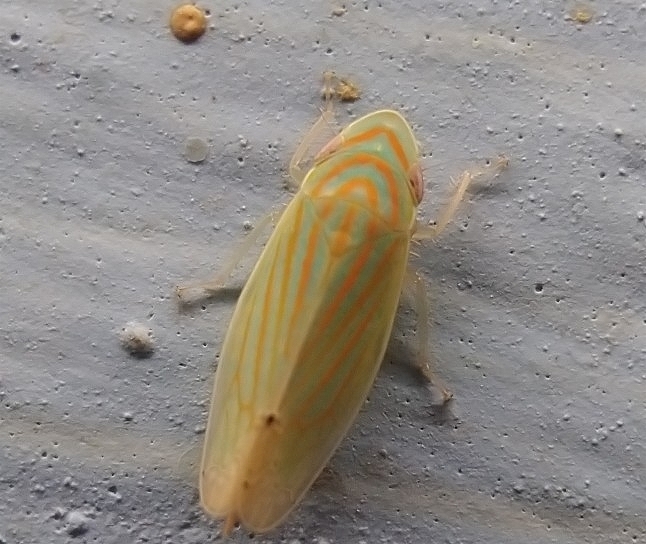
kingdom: Animalia
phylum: Arthropoda
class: Insecta
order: Hemiptera
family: Cicadellidae
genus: Linnavuoriella
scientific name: Linnavuoriella arcuata
